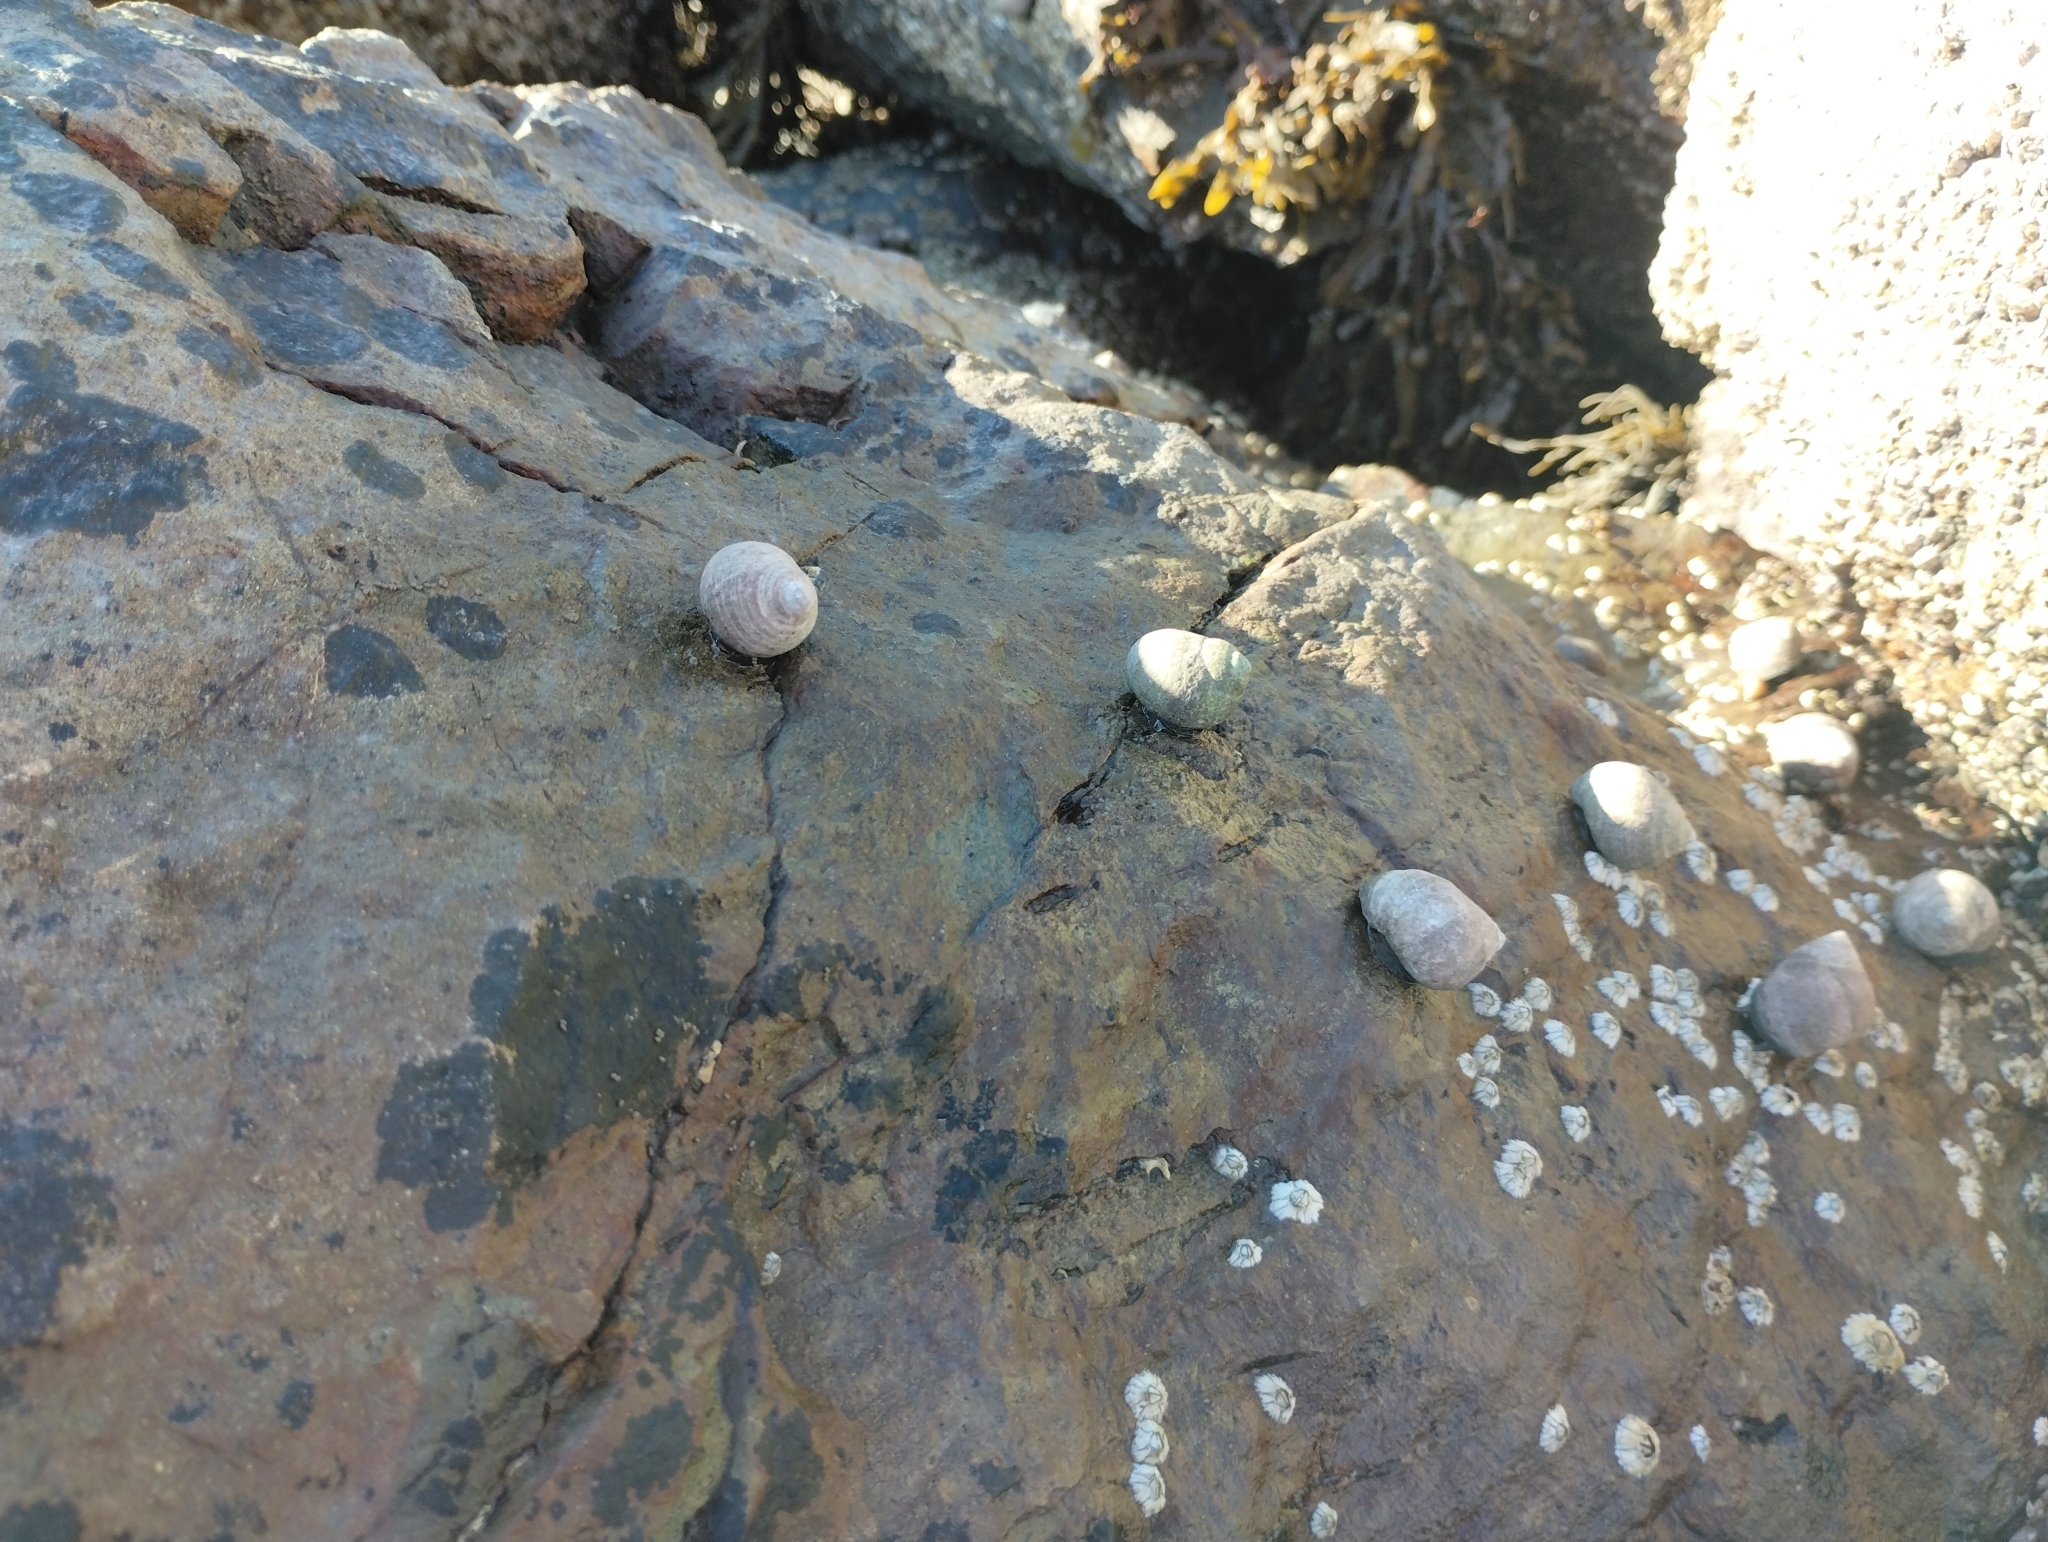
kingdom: Animalia
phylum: Mollusca
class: Gastropoda
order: Littorinimorpha
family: Littorinidae
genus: Littorina
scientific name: Littorina littorea
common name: Common periwinkle
